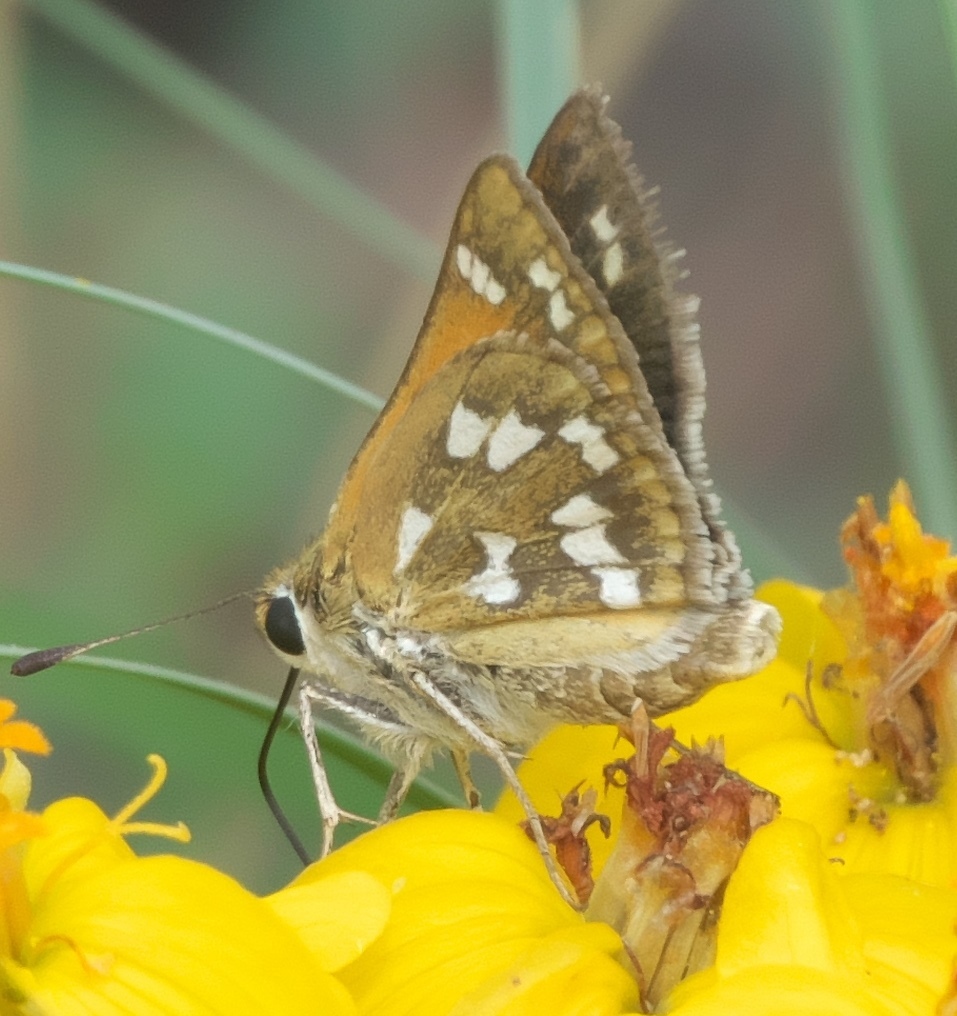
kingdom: Animalia
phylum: Arthropoda
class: Insecta
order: Lepidoptera
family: Hesperiidae
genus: Hesperia
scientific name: Hesperia viridis
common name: Green skipper
